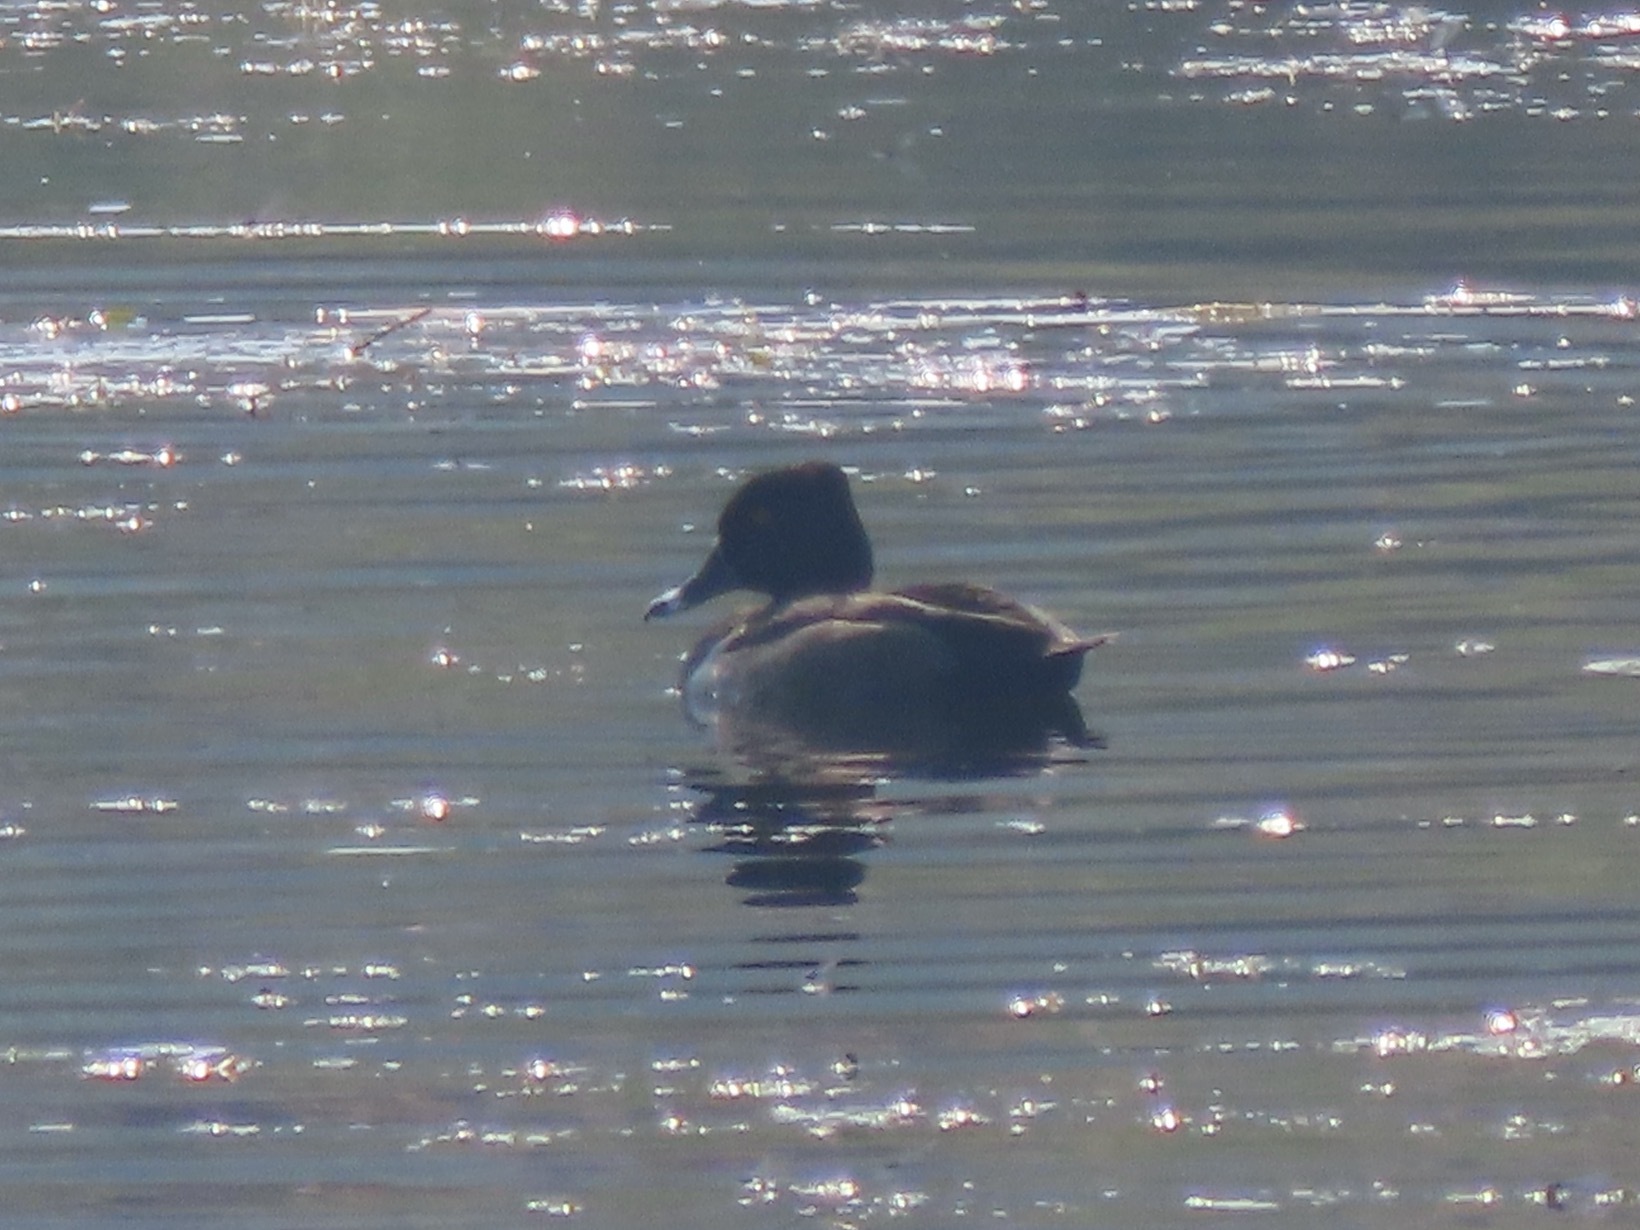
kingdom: Animalia
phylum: Chordata
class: Aves
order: Anseriformes
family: Anatidae
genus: Aythya
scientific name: Aythya collaris
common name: Ring-necked duck
